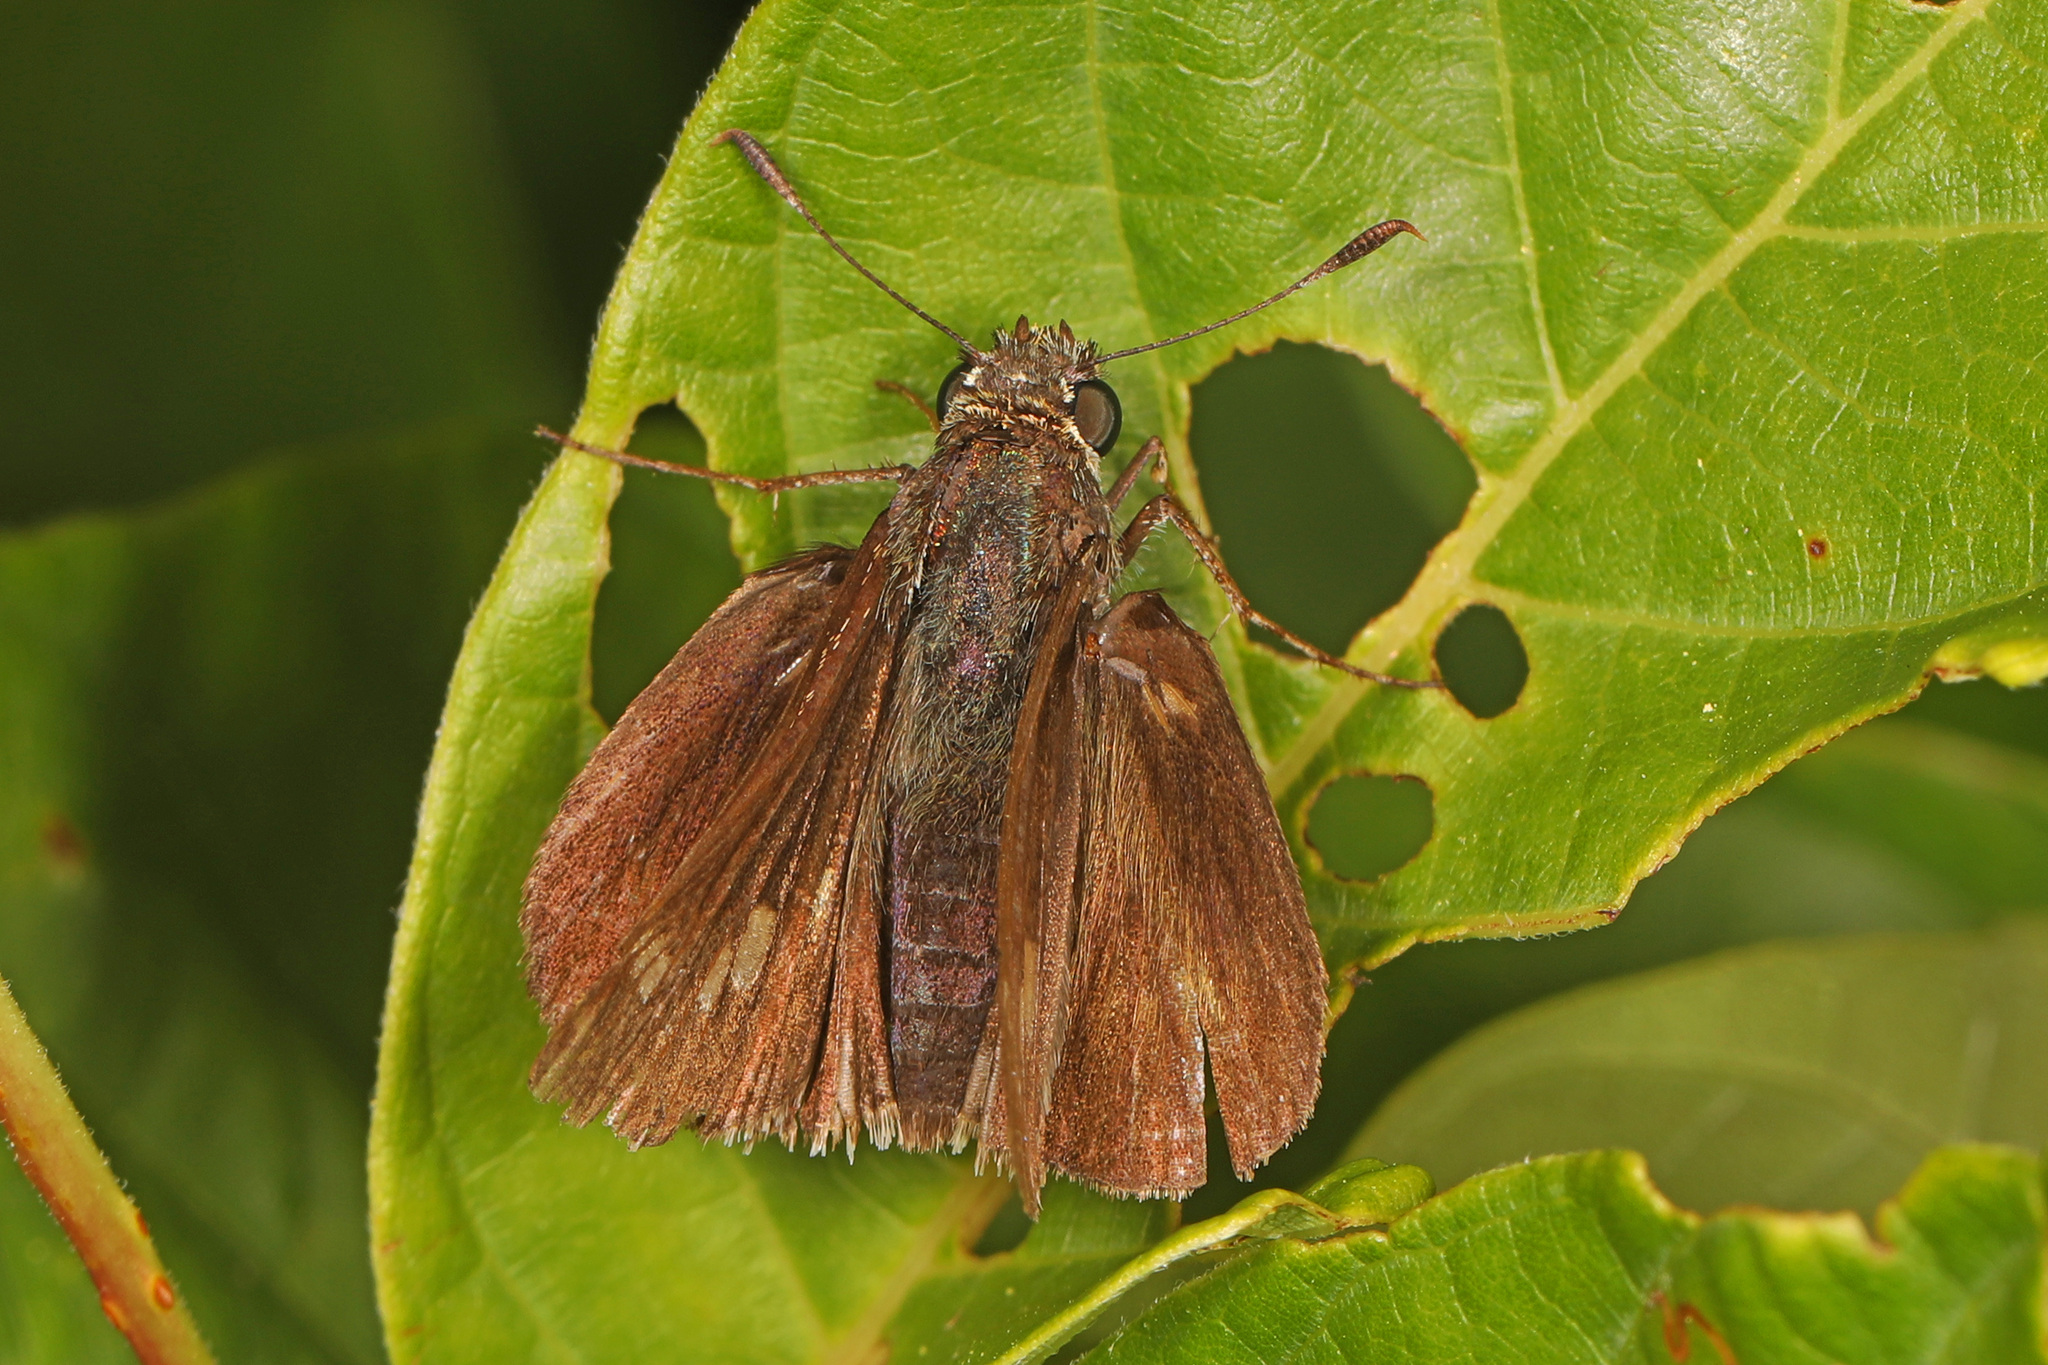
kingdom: Animalia
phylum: Arthropoda
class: Insecta
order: Lepidoptera
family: Hesperiidae
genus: Vernia
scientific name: Vernia verna
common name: Little glassywing
